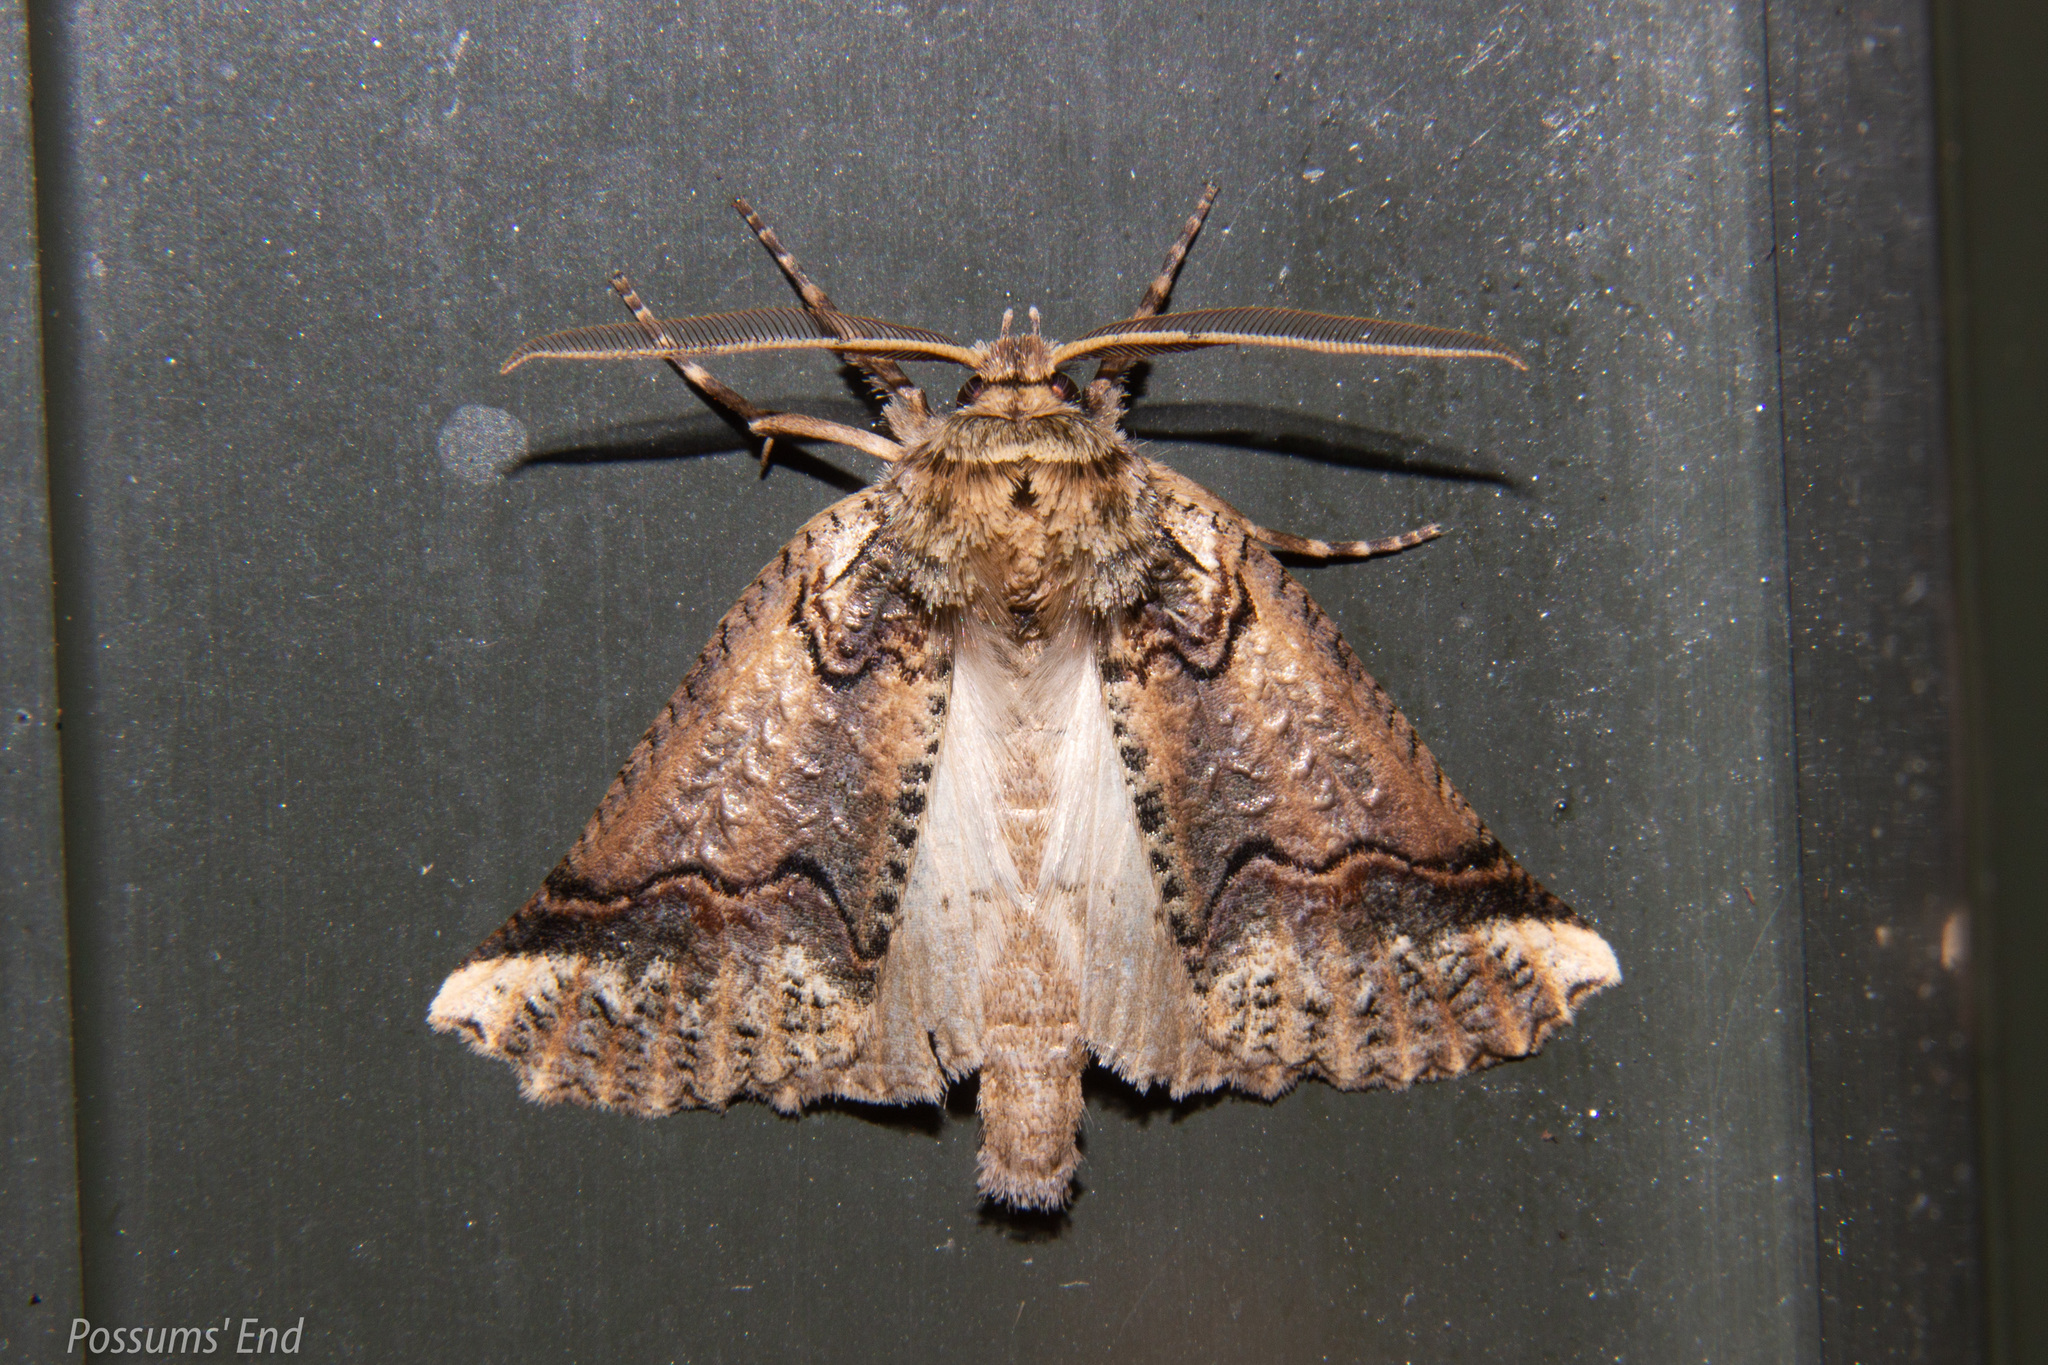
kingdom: Animalia
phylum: Arthropoda
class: Insecta
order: Lepidoptera
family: Geometridae
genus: Declana
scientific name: Declana
